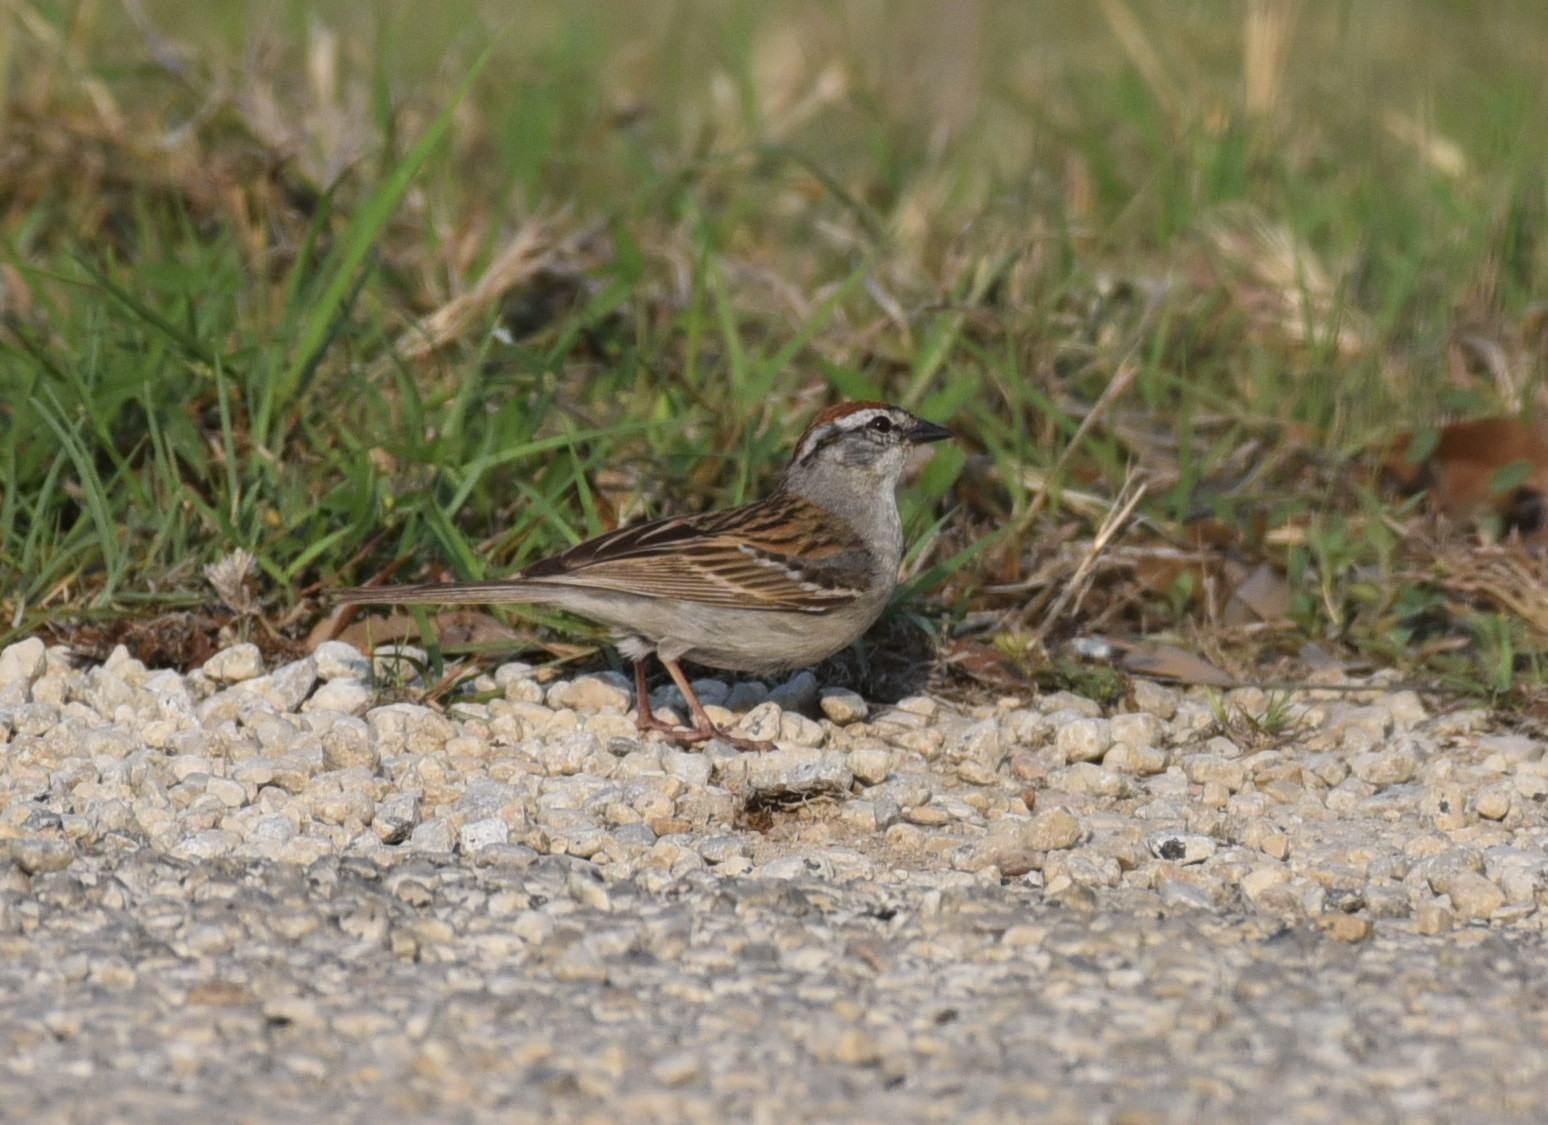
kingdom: Animalia
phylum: Chordata
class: Aves
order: Passeriformes
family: Passerellidae
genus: Spizella
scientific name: Spizella passerina
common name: Chipping sparrow
